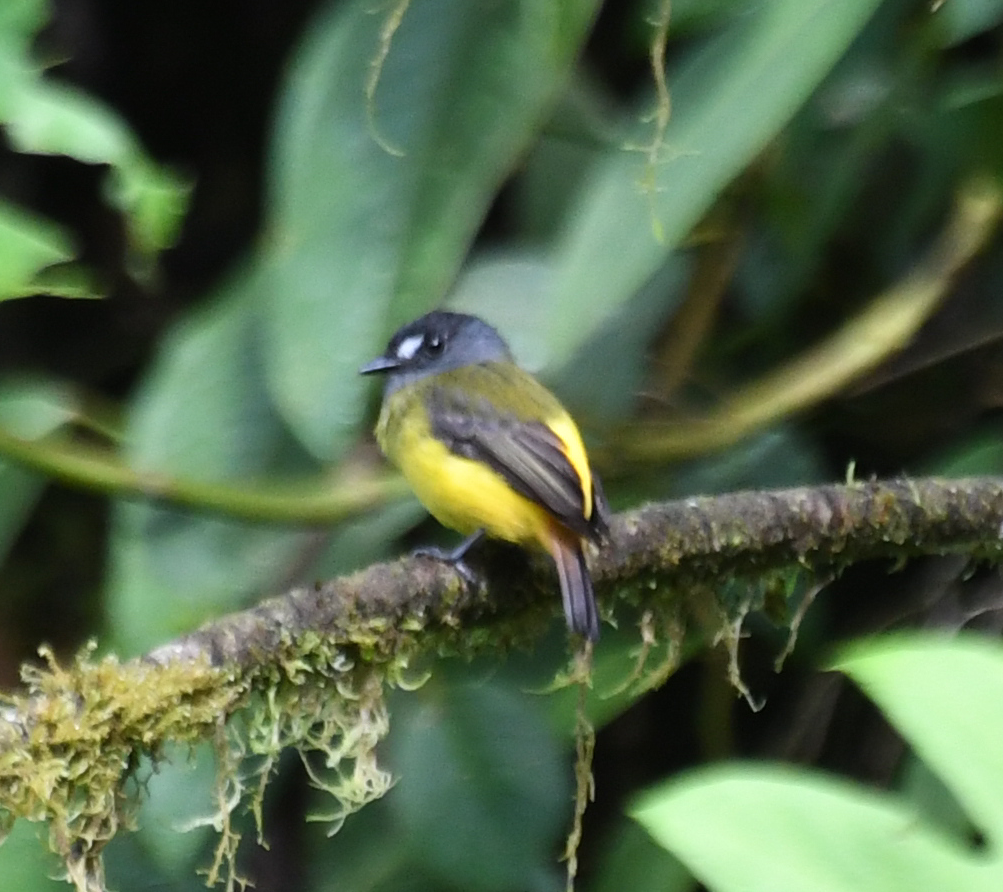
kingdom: Animalia
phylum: Chordata
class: Aves
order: Passeriformes
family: Tyrannidae
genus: Myiotriccus
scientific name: Myiotriccus ornatus
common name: Ornate flycatcher
